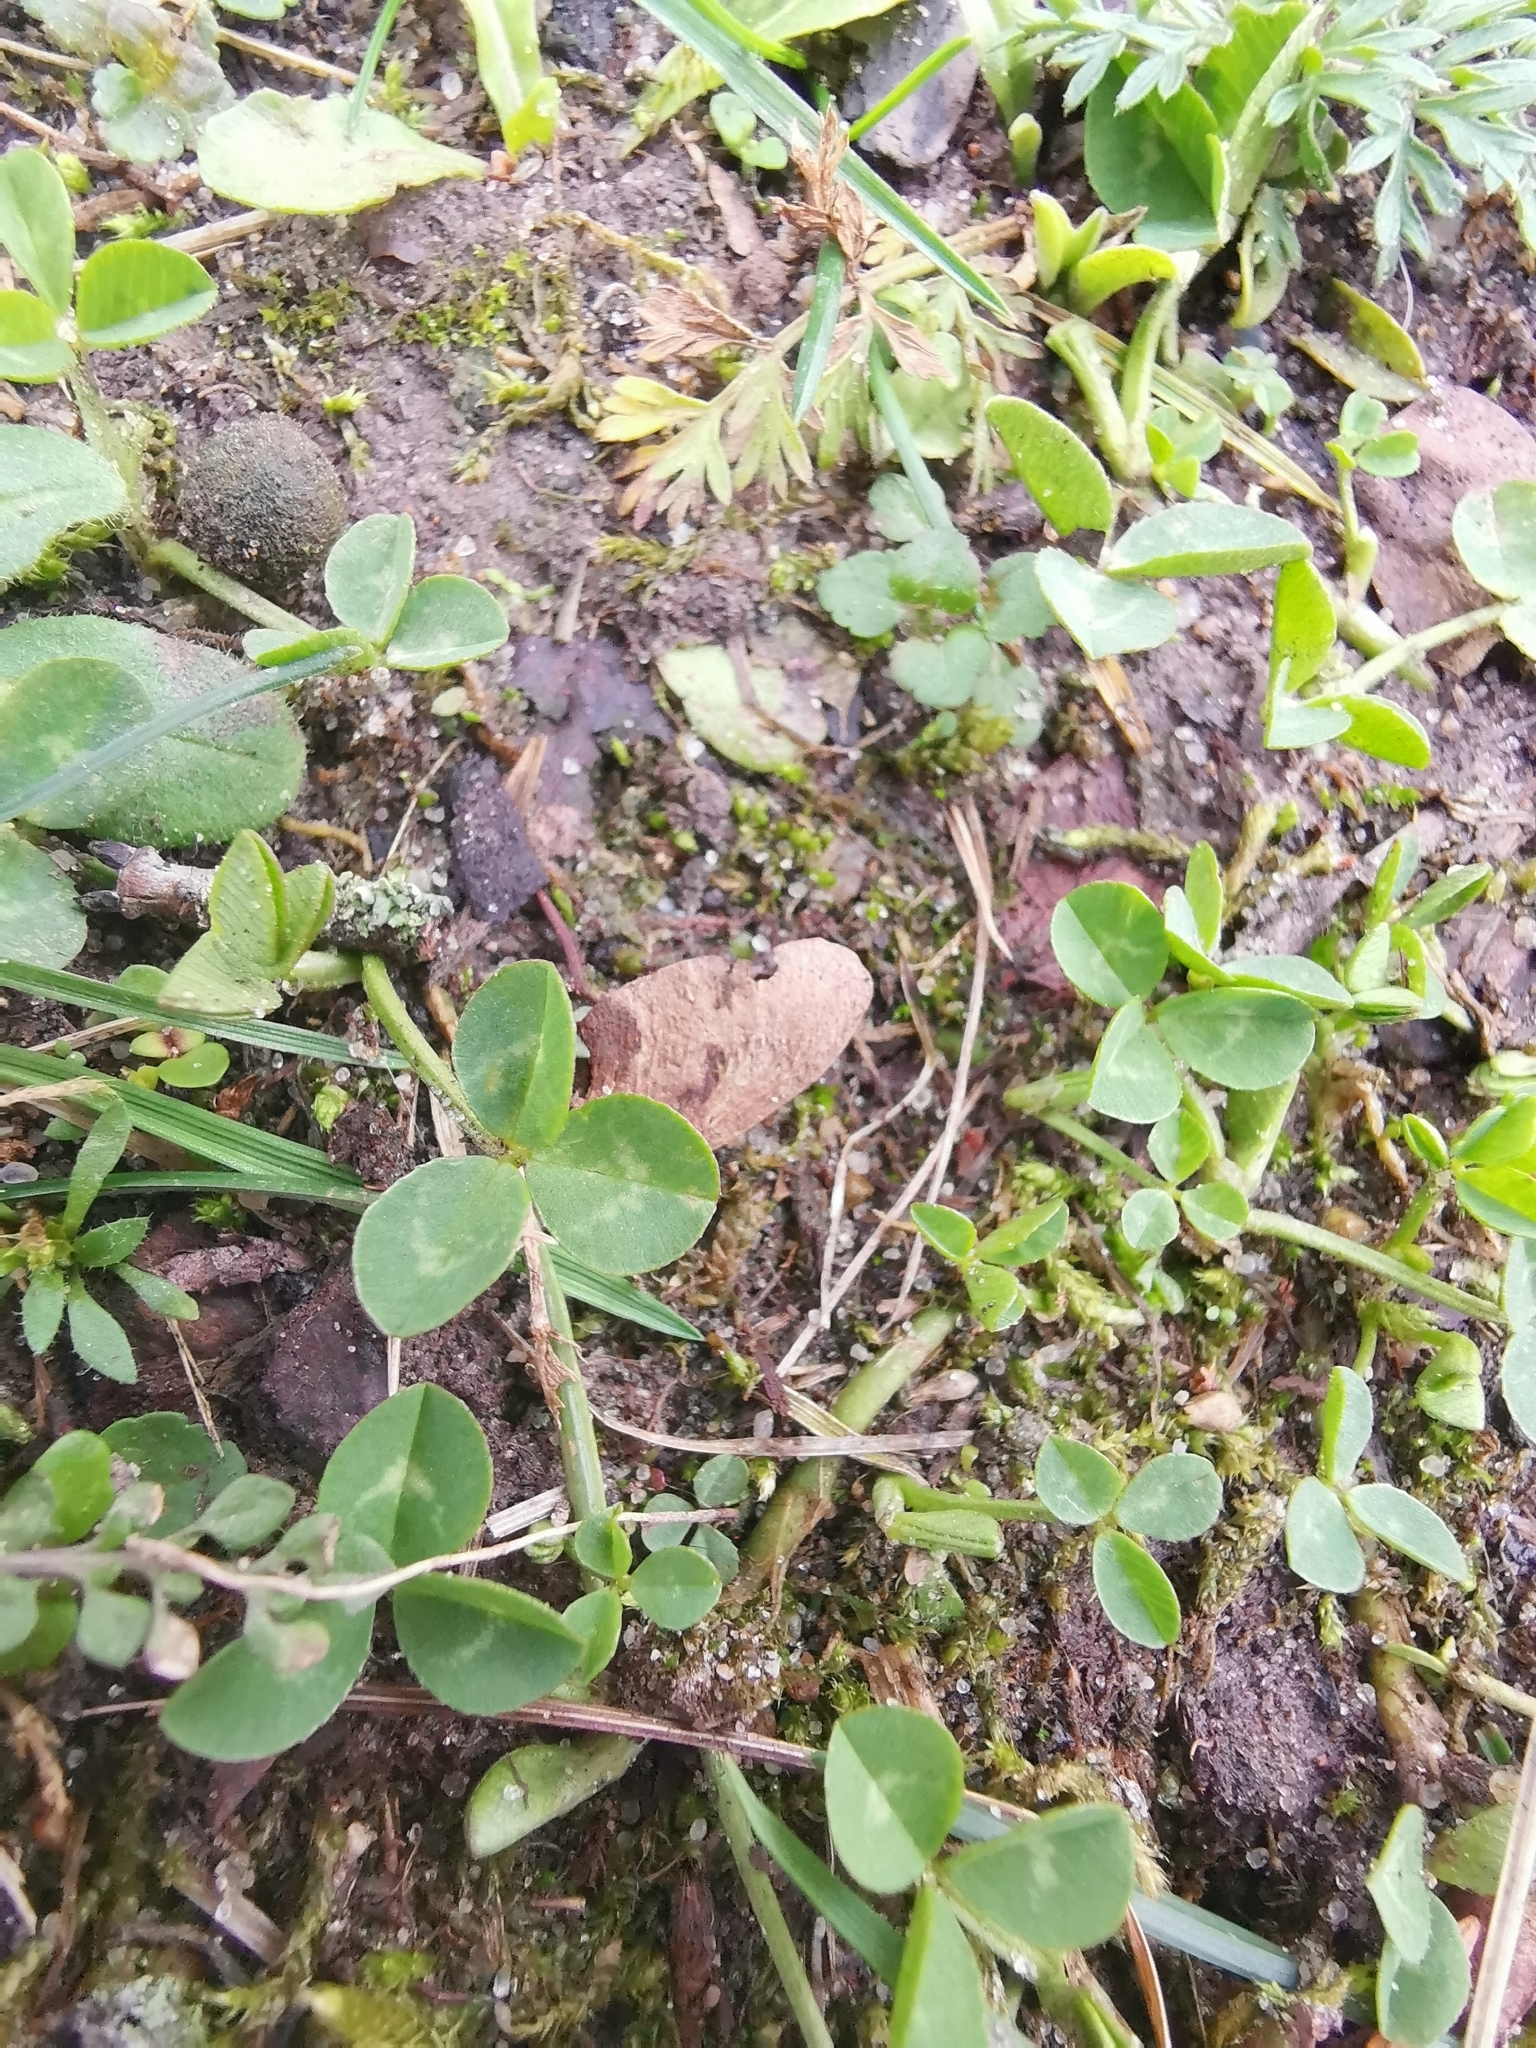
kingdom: Plantae
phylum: Tracheophyta
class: Magnoliopsida
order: Fabales
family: Fabaceae
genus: Trifolium
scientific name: Trifolium repens
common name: White clover
